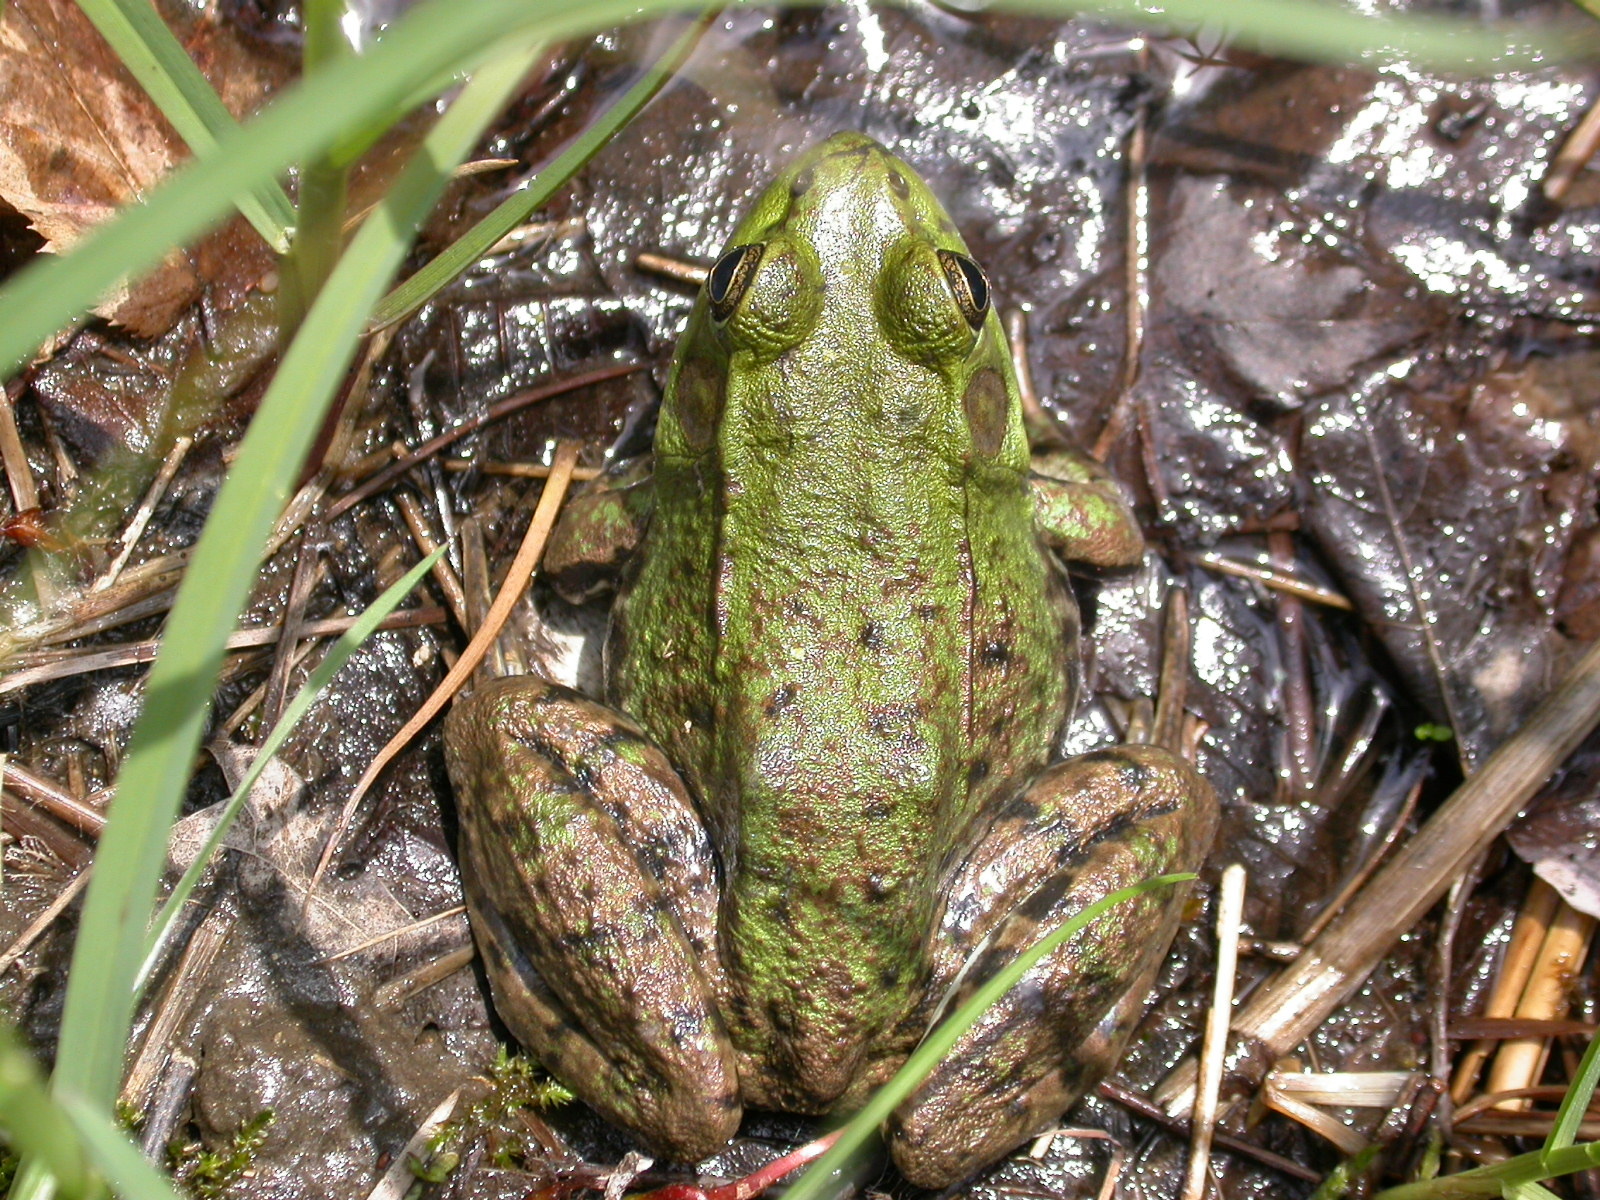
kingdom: Animalia
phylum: Chordata
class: Amphibia
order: Anura
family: Ranidae
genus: Lithobates
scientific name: Lithobates clamitans
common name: Green frog
